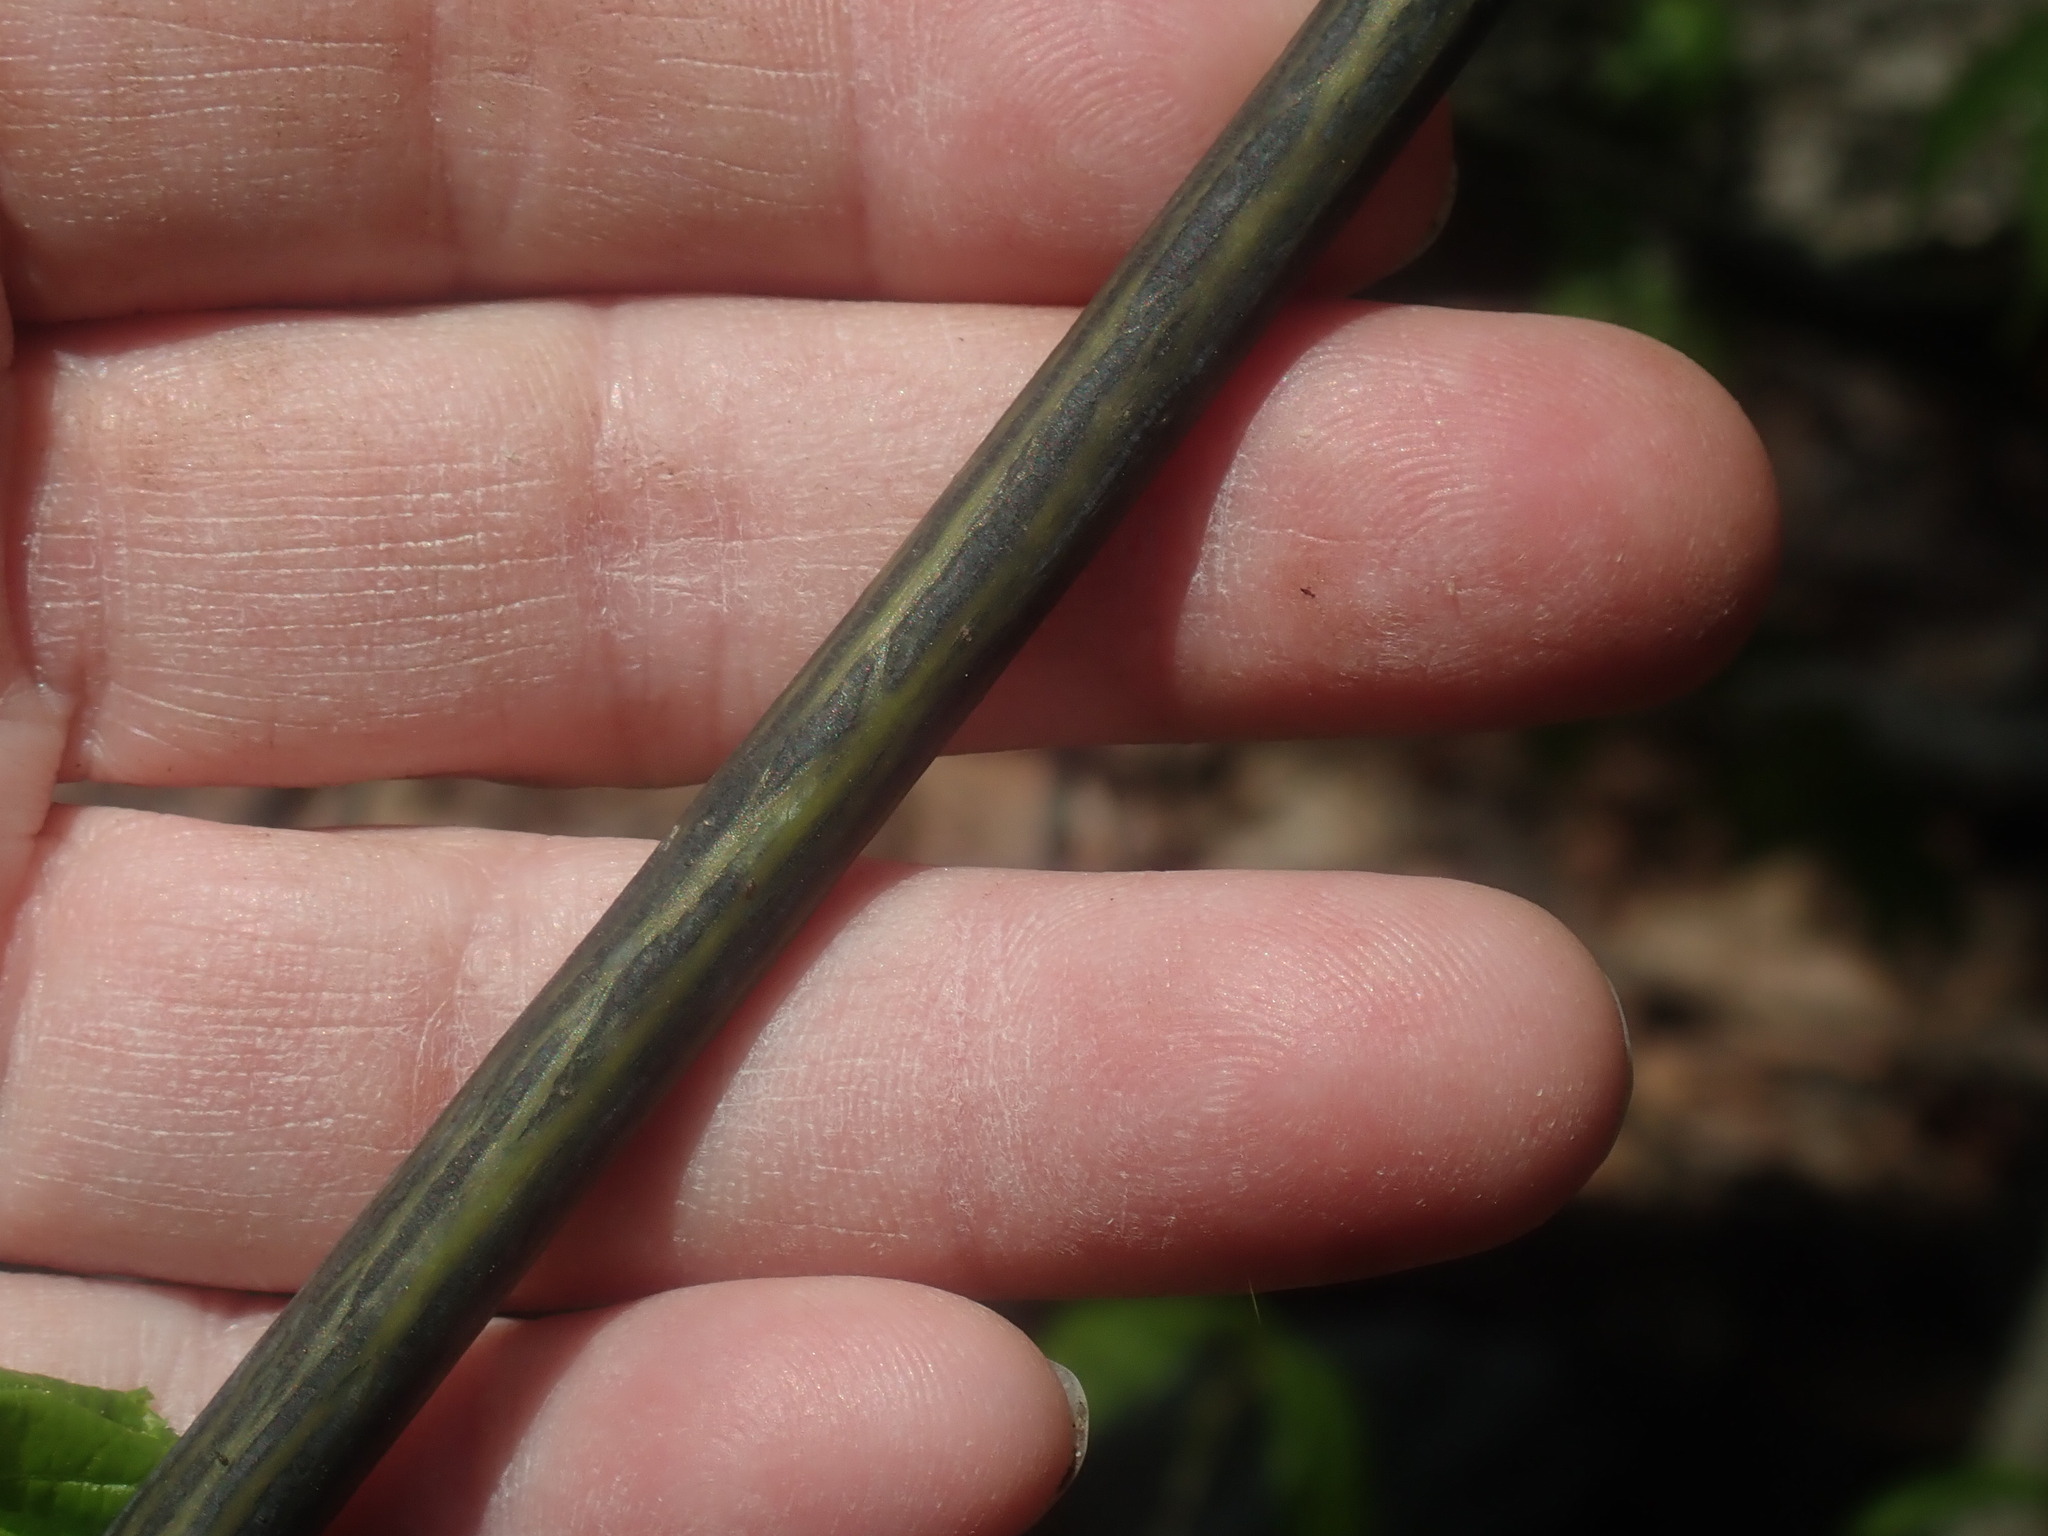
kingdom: Plantae
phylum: Tracheophyta
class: Magnoliopsida
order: Sapindales
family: Sapindaceae
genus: Acer
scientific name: Acer pensylvanicum
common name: Moosewood
